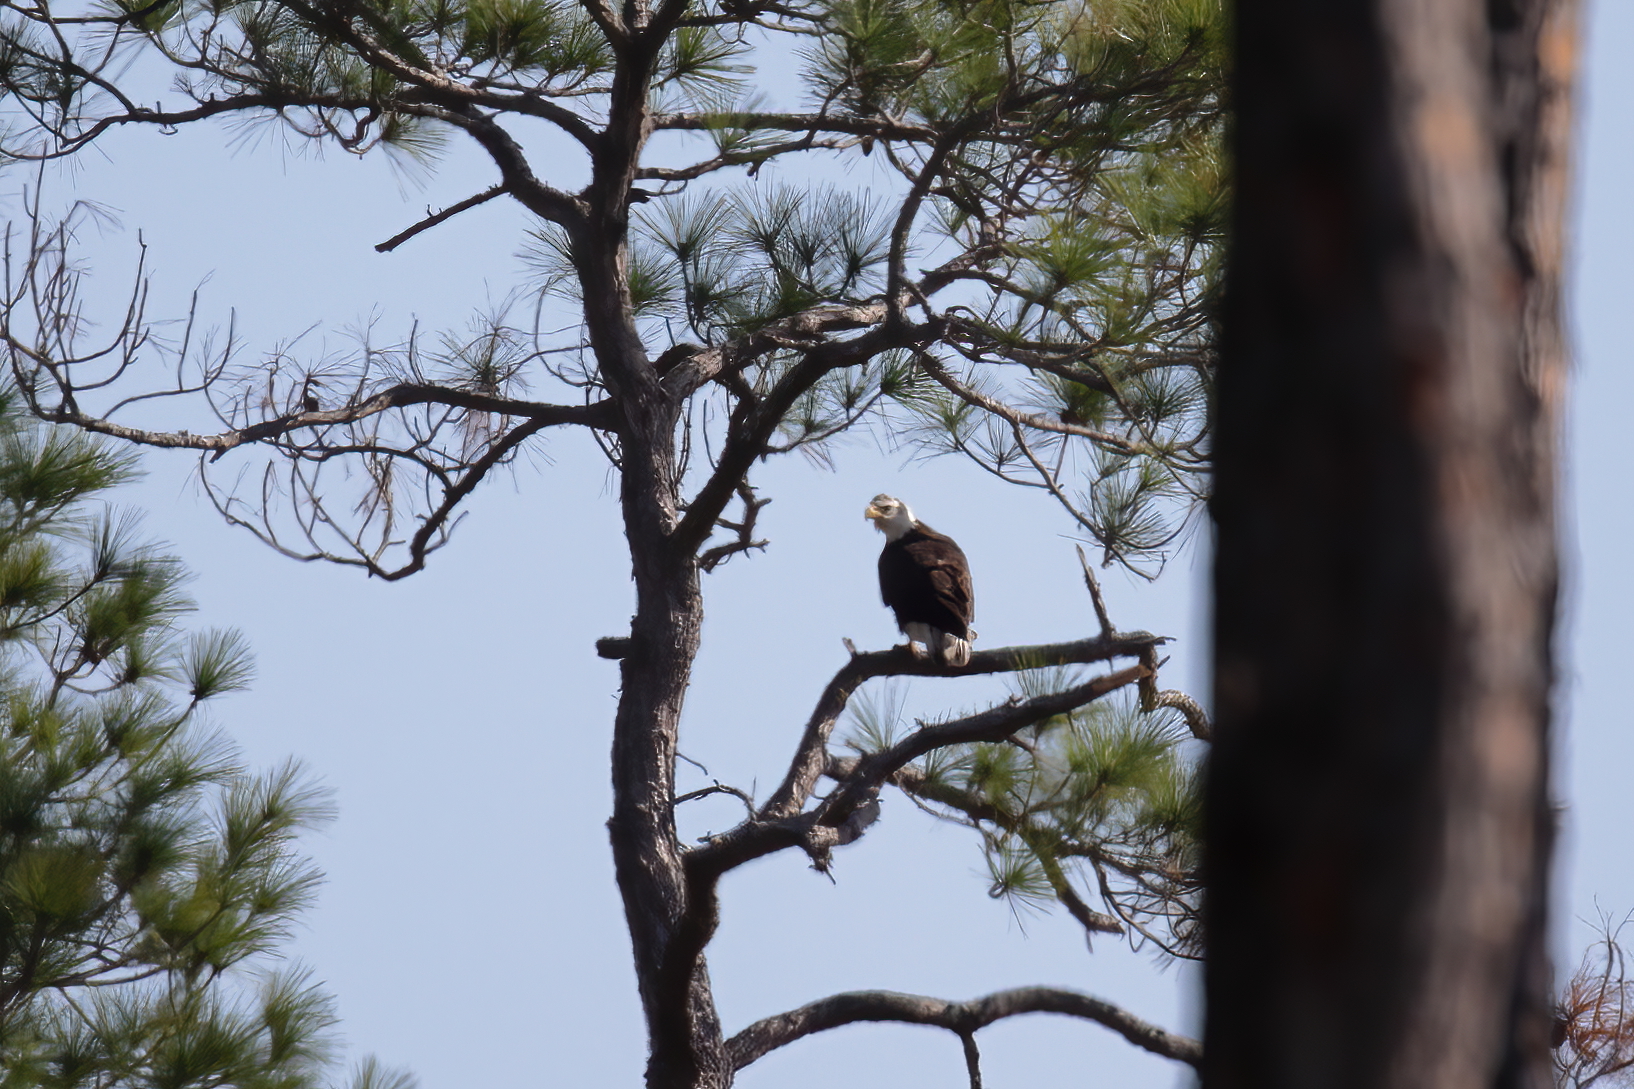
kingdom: Animalia
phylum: Chordata
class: Aves
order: Accipitriformes
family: Accipitridae
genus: Haliaeetus
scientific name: Haliaeetus leucocephalus
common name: Bald eagle
